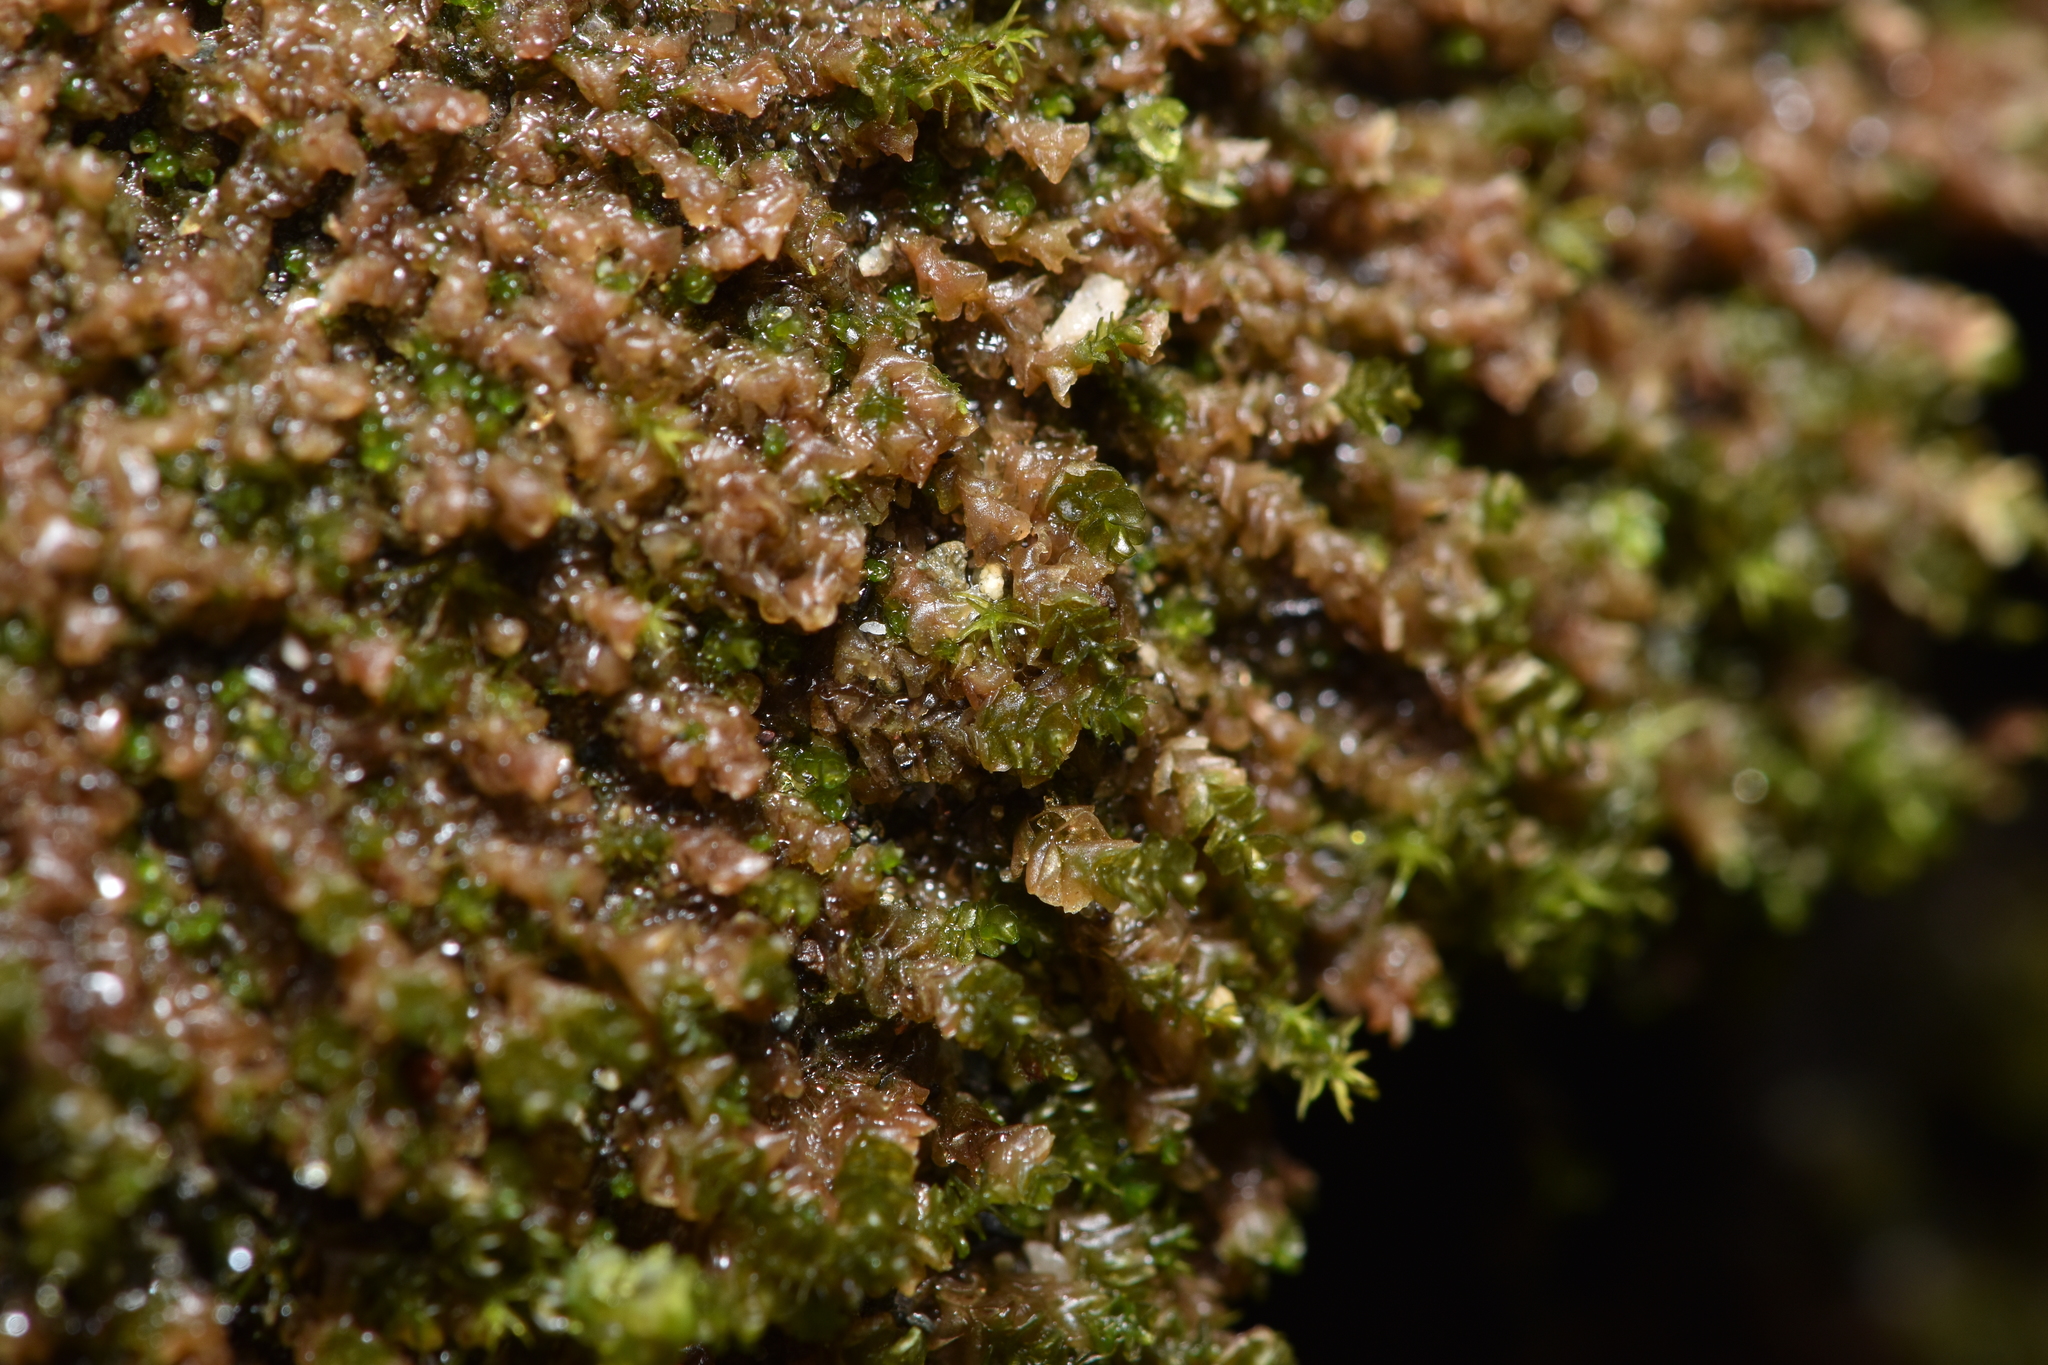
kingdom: Plantae
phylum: Marchantiophyta
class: Jungermanniopsida
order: Jungermanniales
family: Gymnomitriaceae
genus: Marsupella
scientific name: Marsupella emarginata
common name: Notched rustwort
